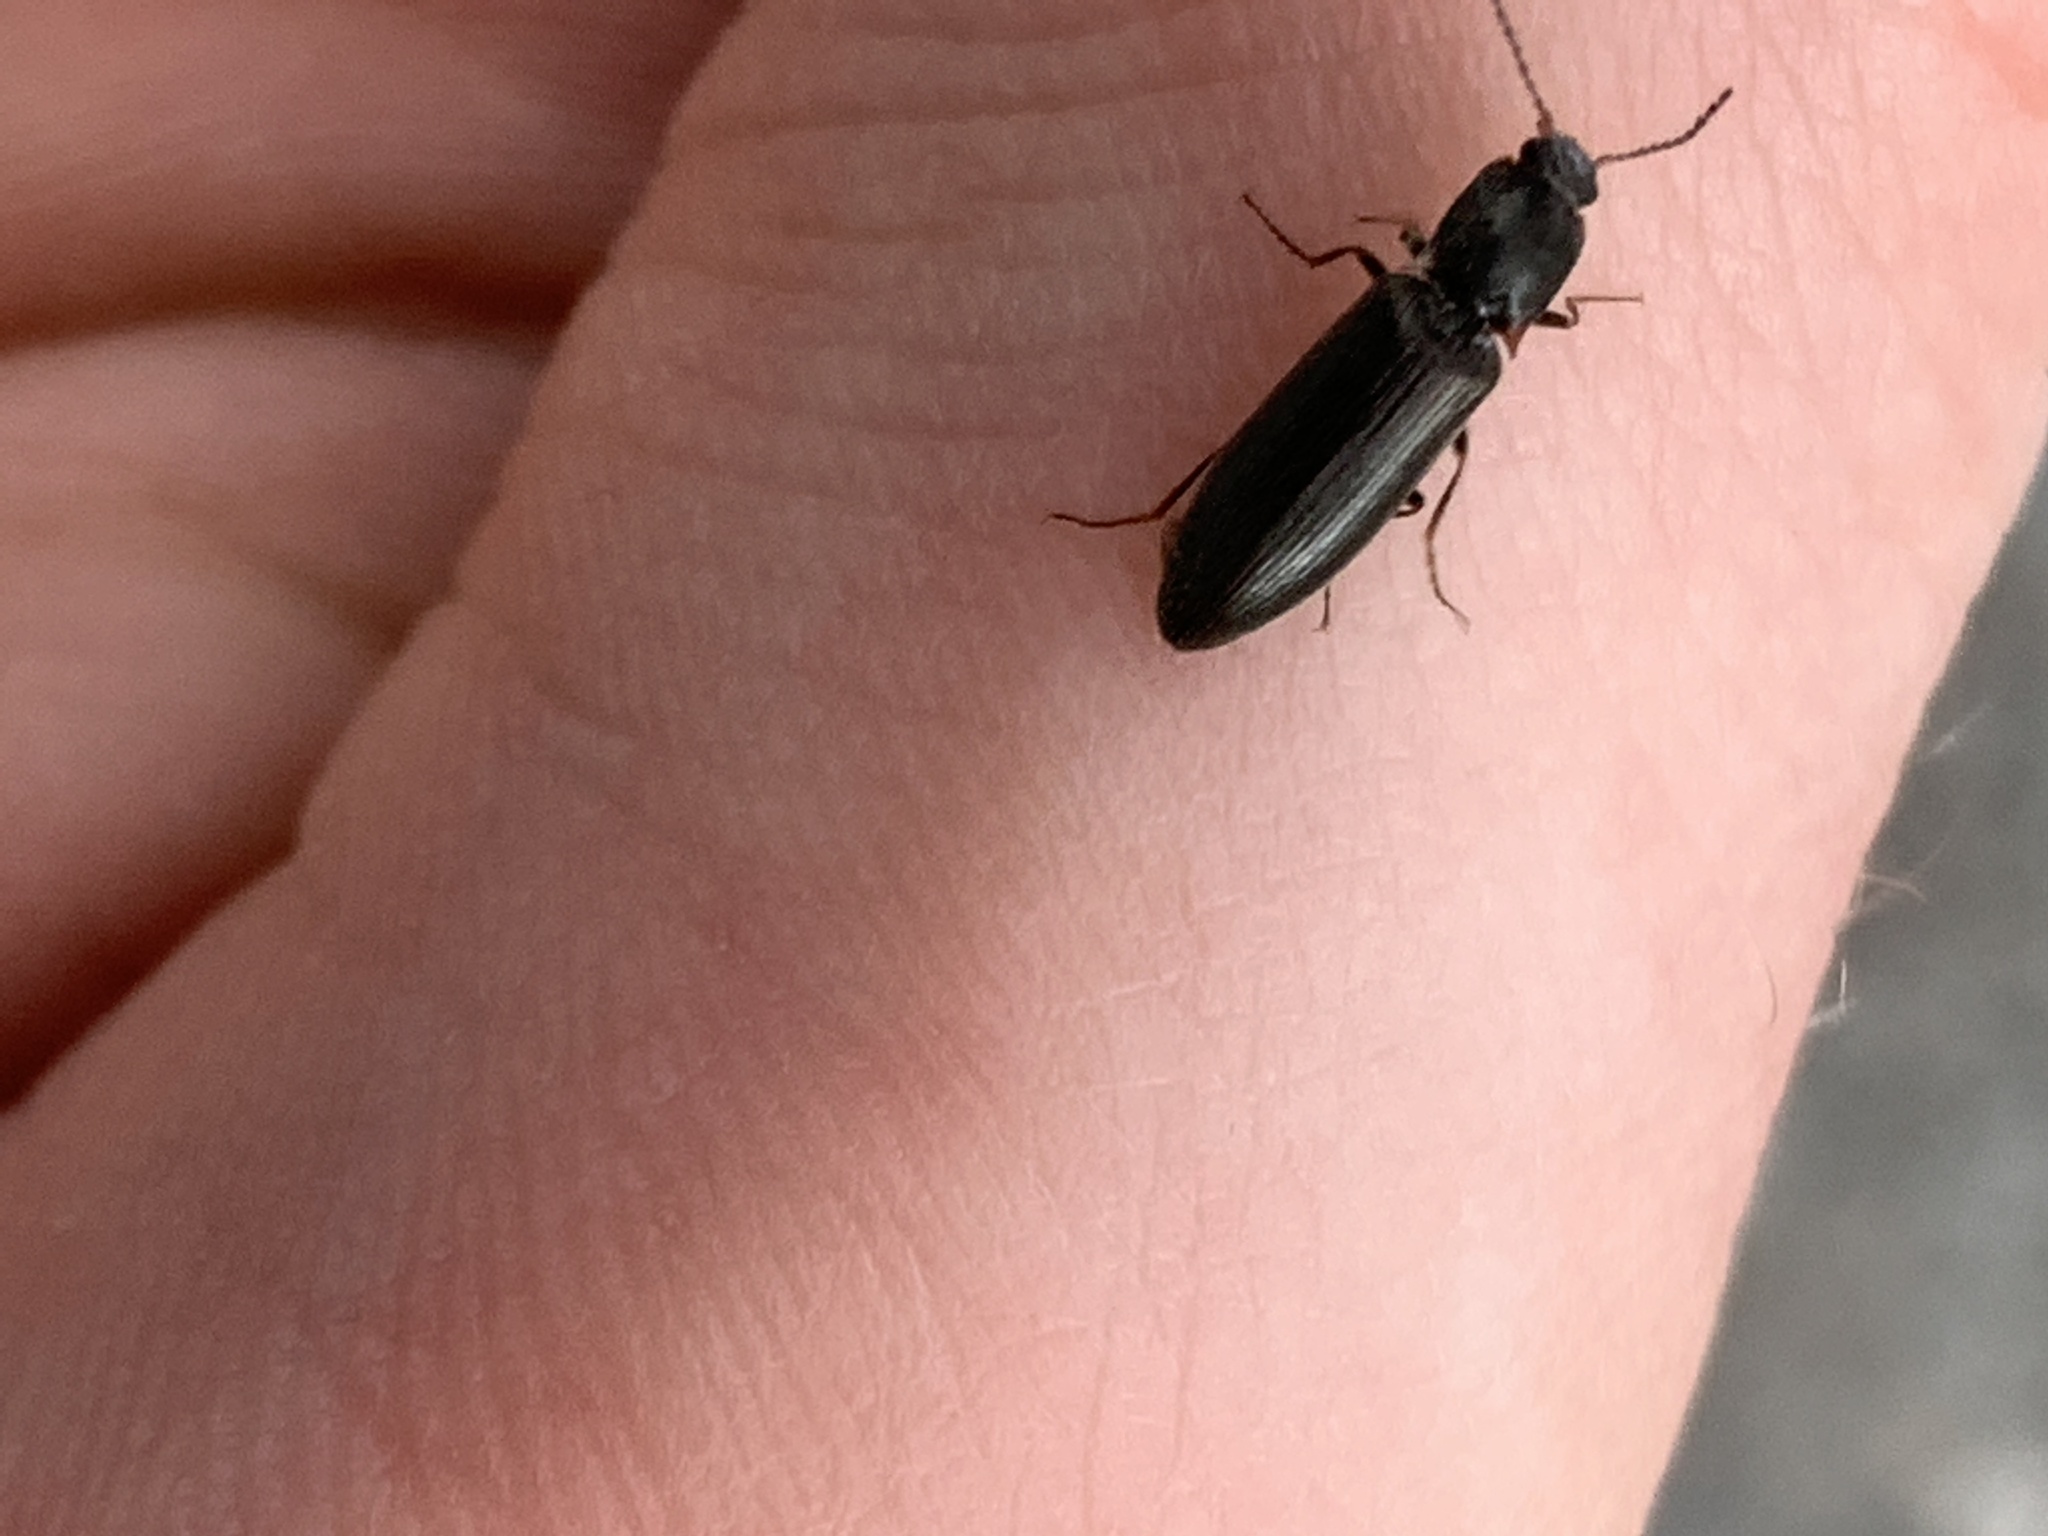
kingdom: Animalia
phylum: Arthropoda
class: Insecta
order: Coleoptera
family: Elateridae
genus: Ctenicera
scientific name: Ctenicera angularis
